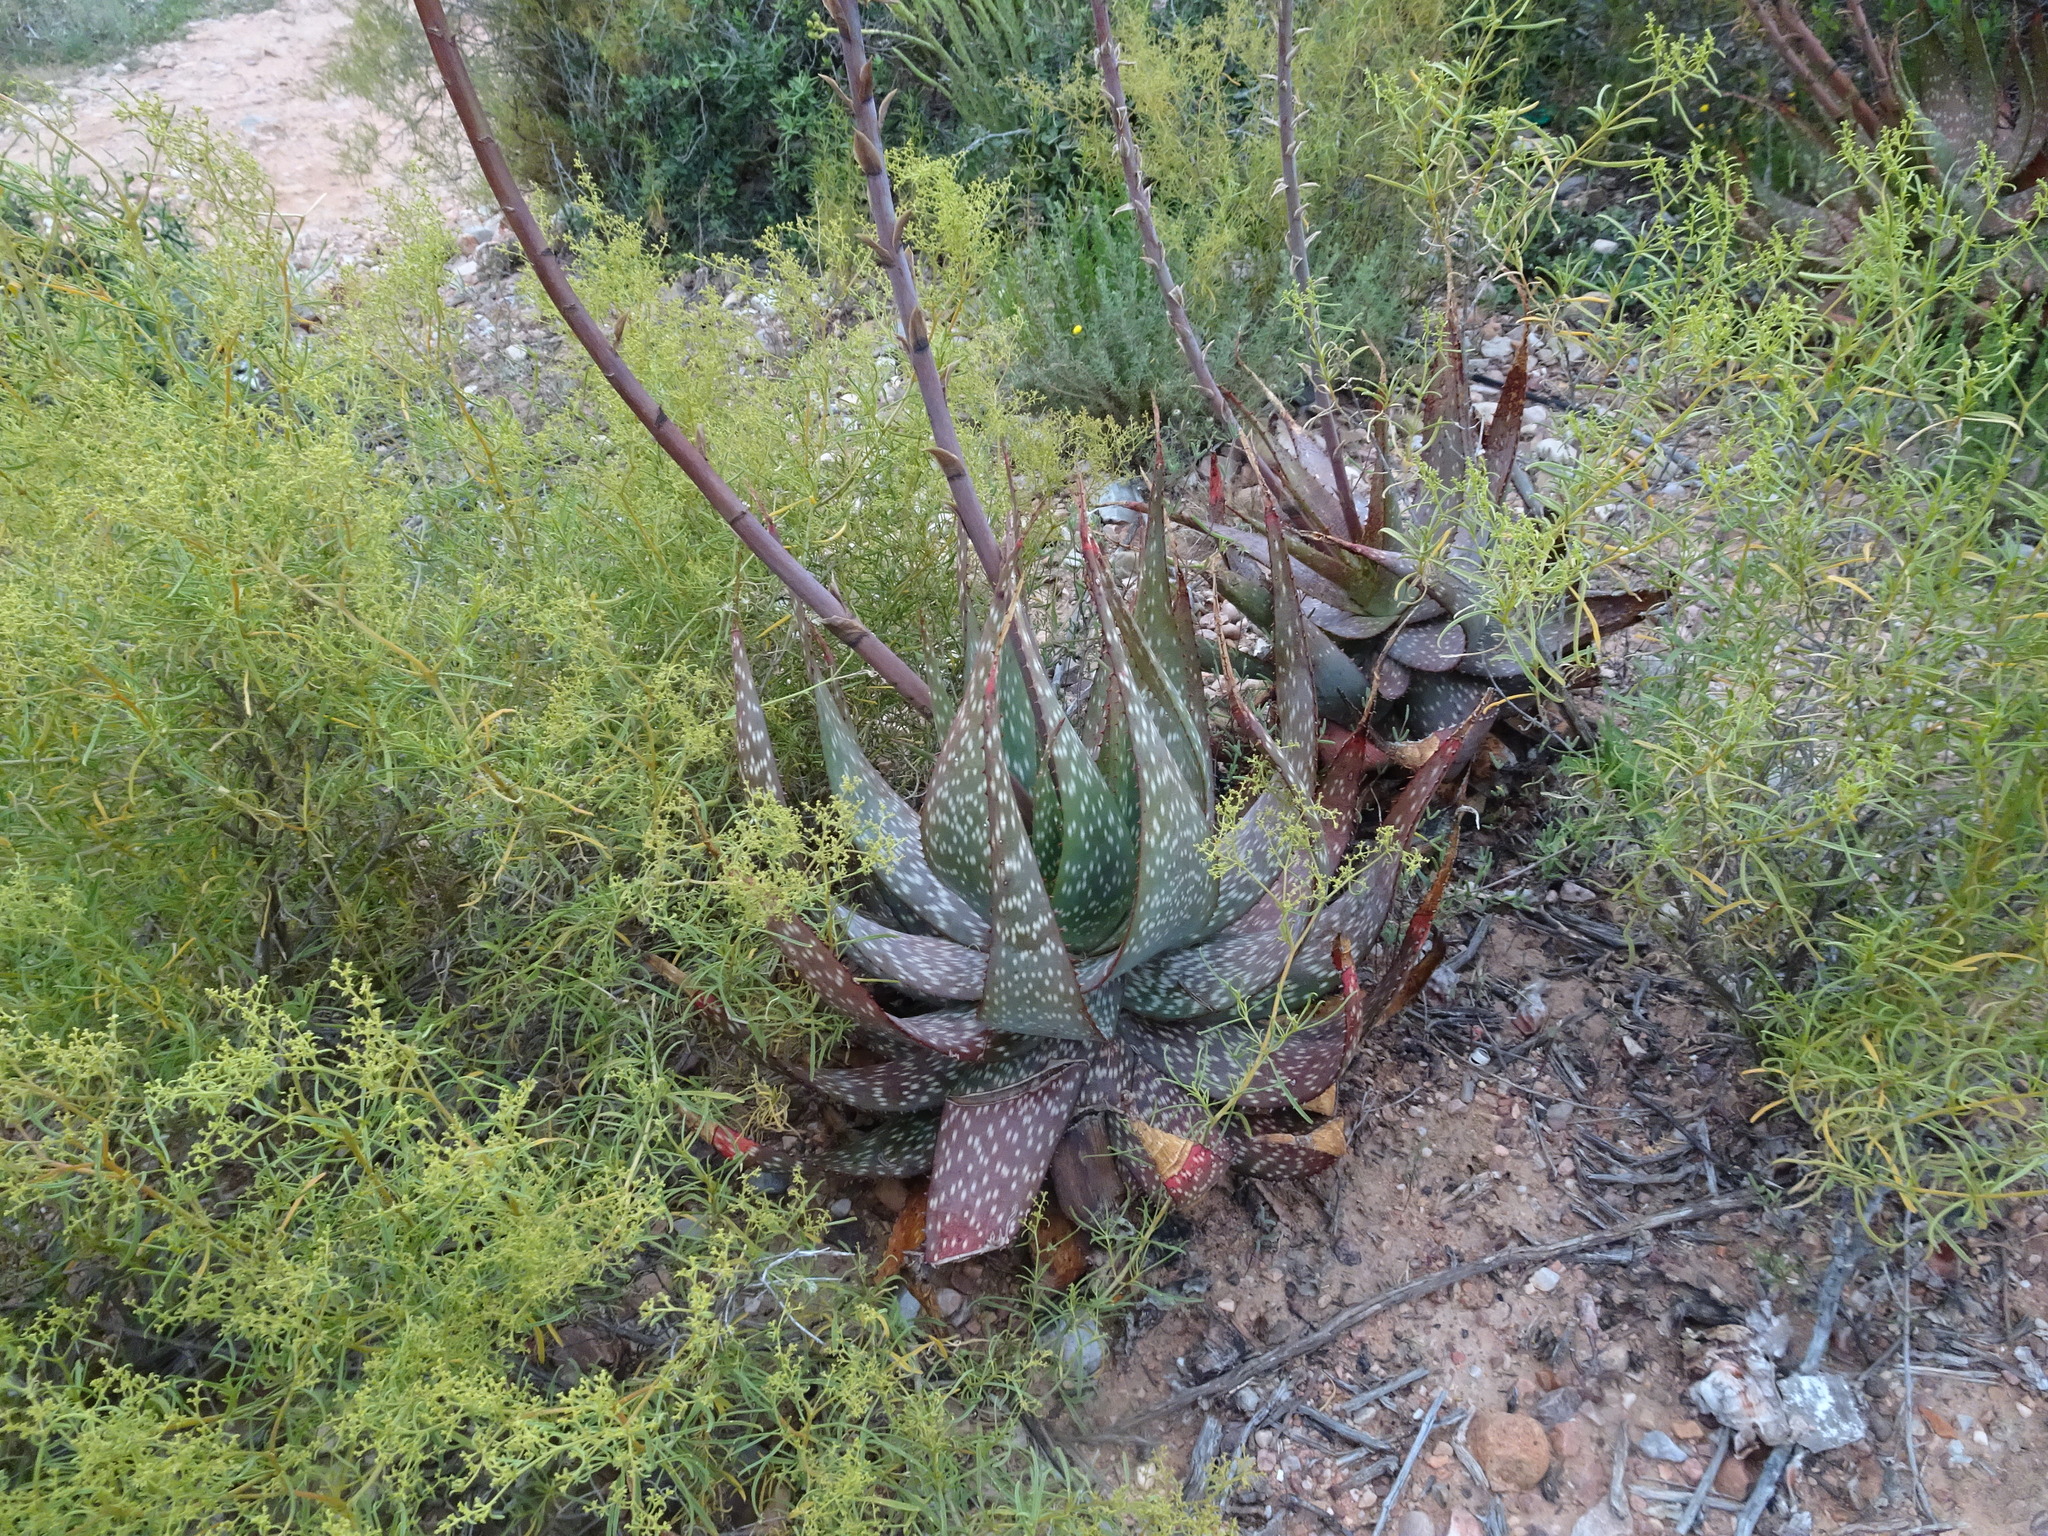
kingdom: Plantae
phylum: Tracheophyta
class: Liliopsida
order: Asparagales
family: Asphodelaceae
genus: Aloe
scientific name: Aloe microstigma
